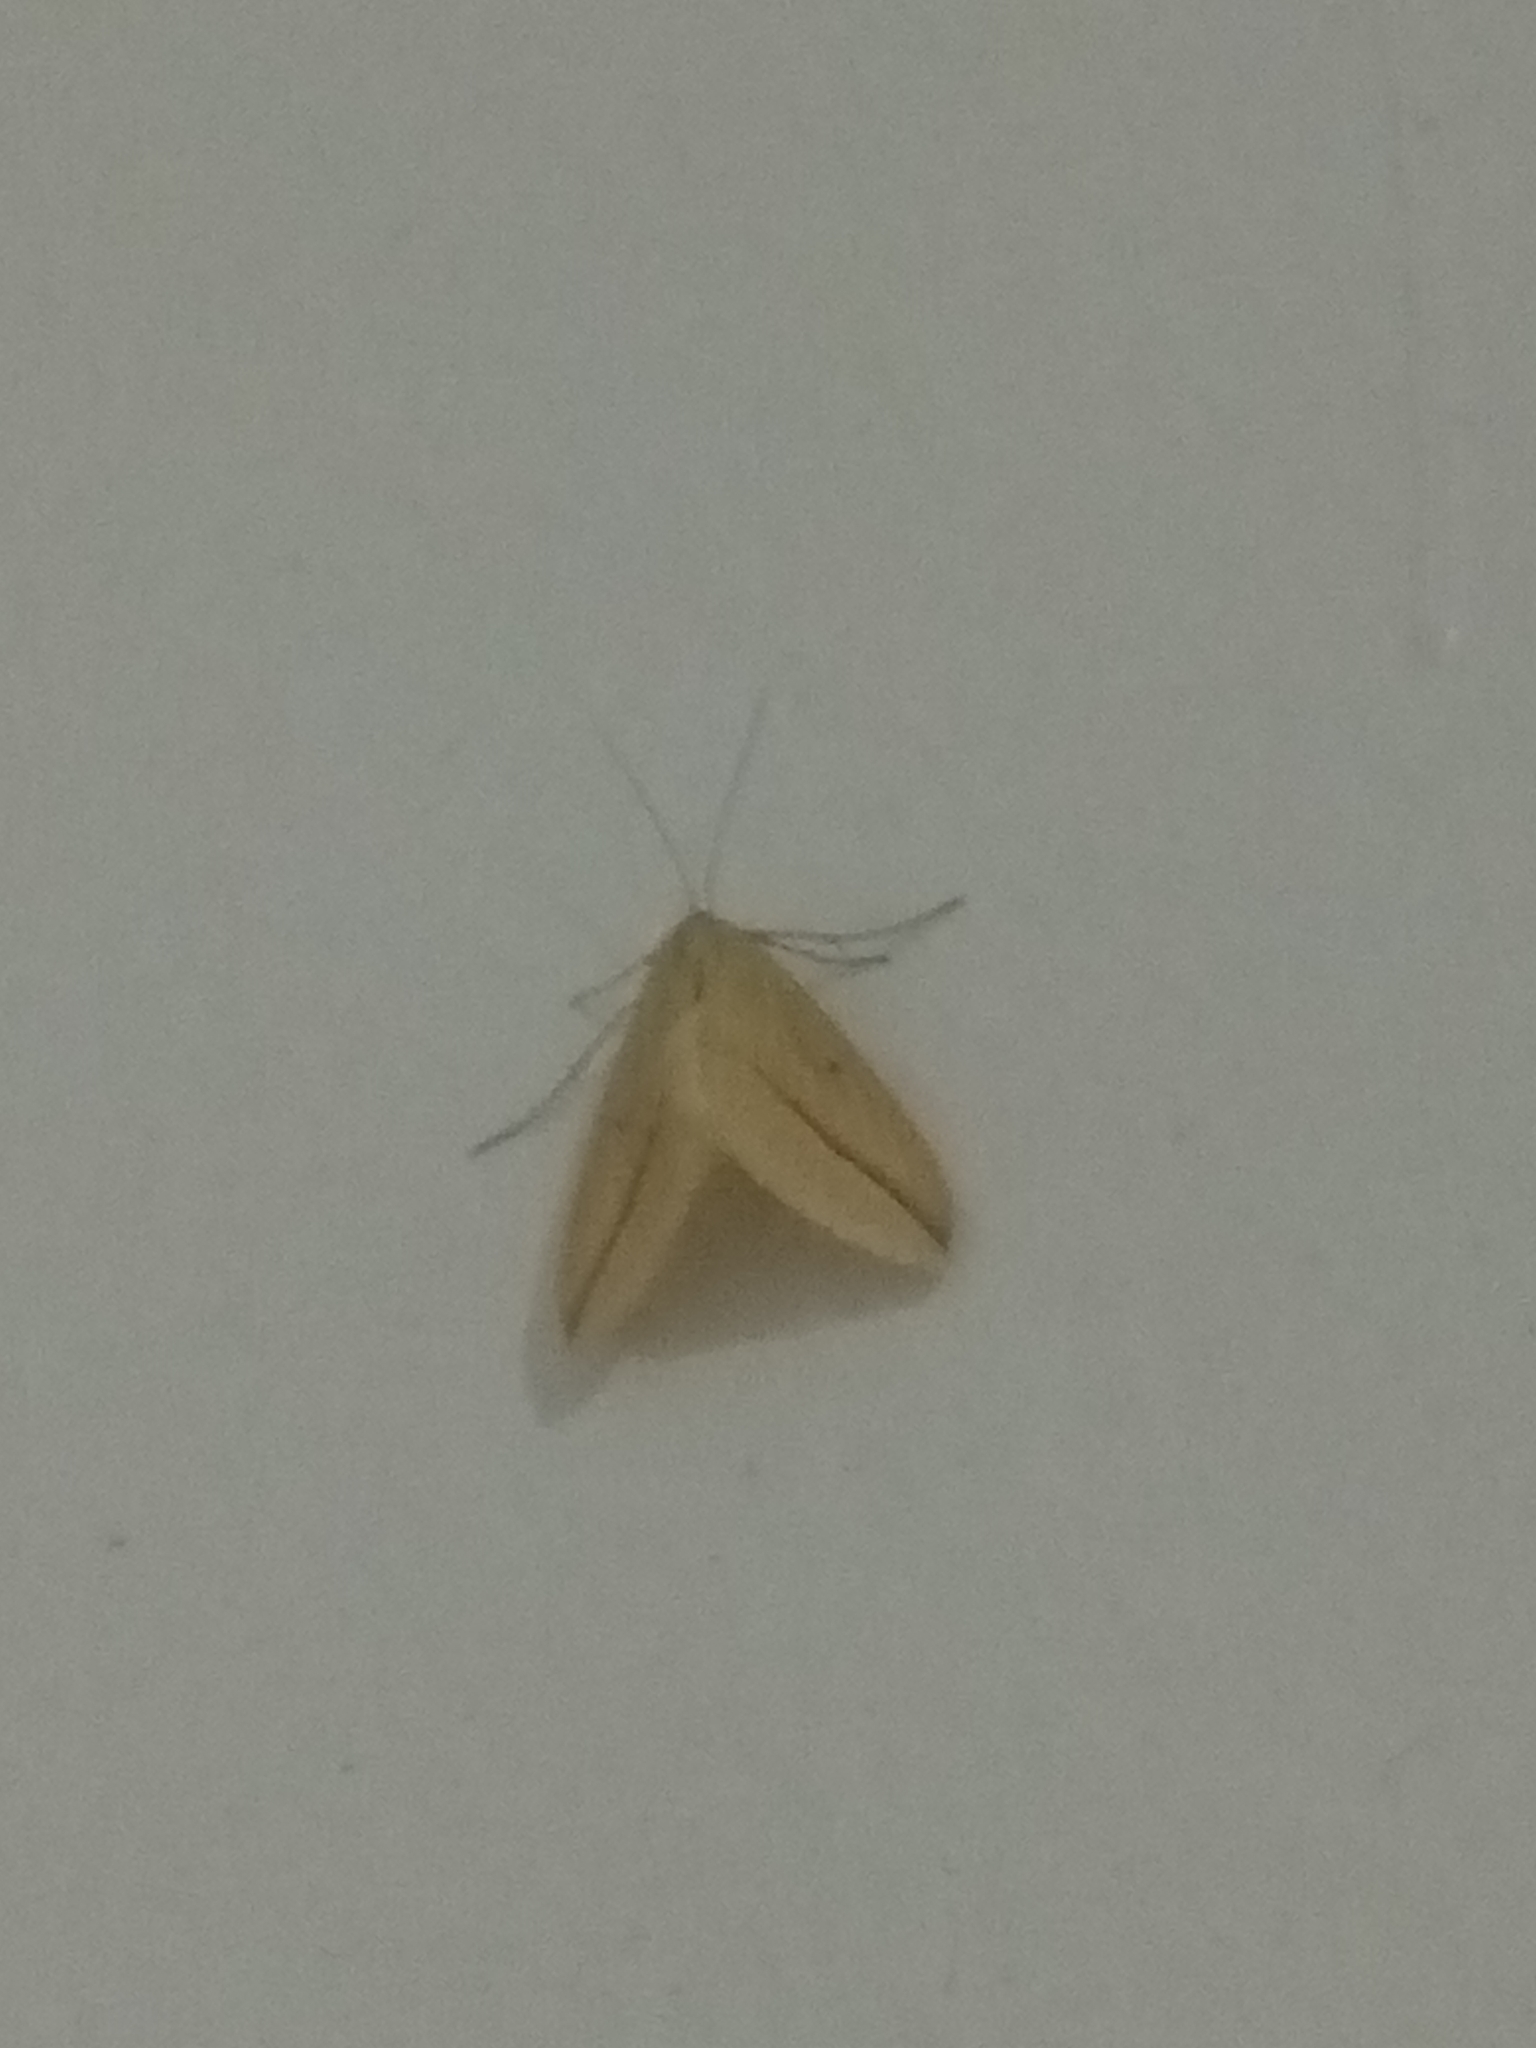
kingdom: Animalia
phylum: Arthropoda
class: Insecta
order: Lepidoptera
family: Geometridae
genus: Rhodometra
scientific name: Rhodometra sacraria
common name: Vestal
